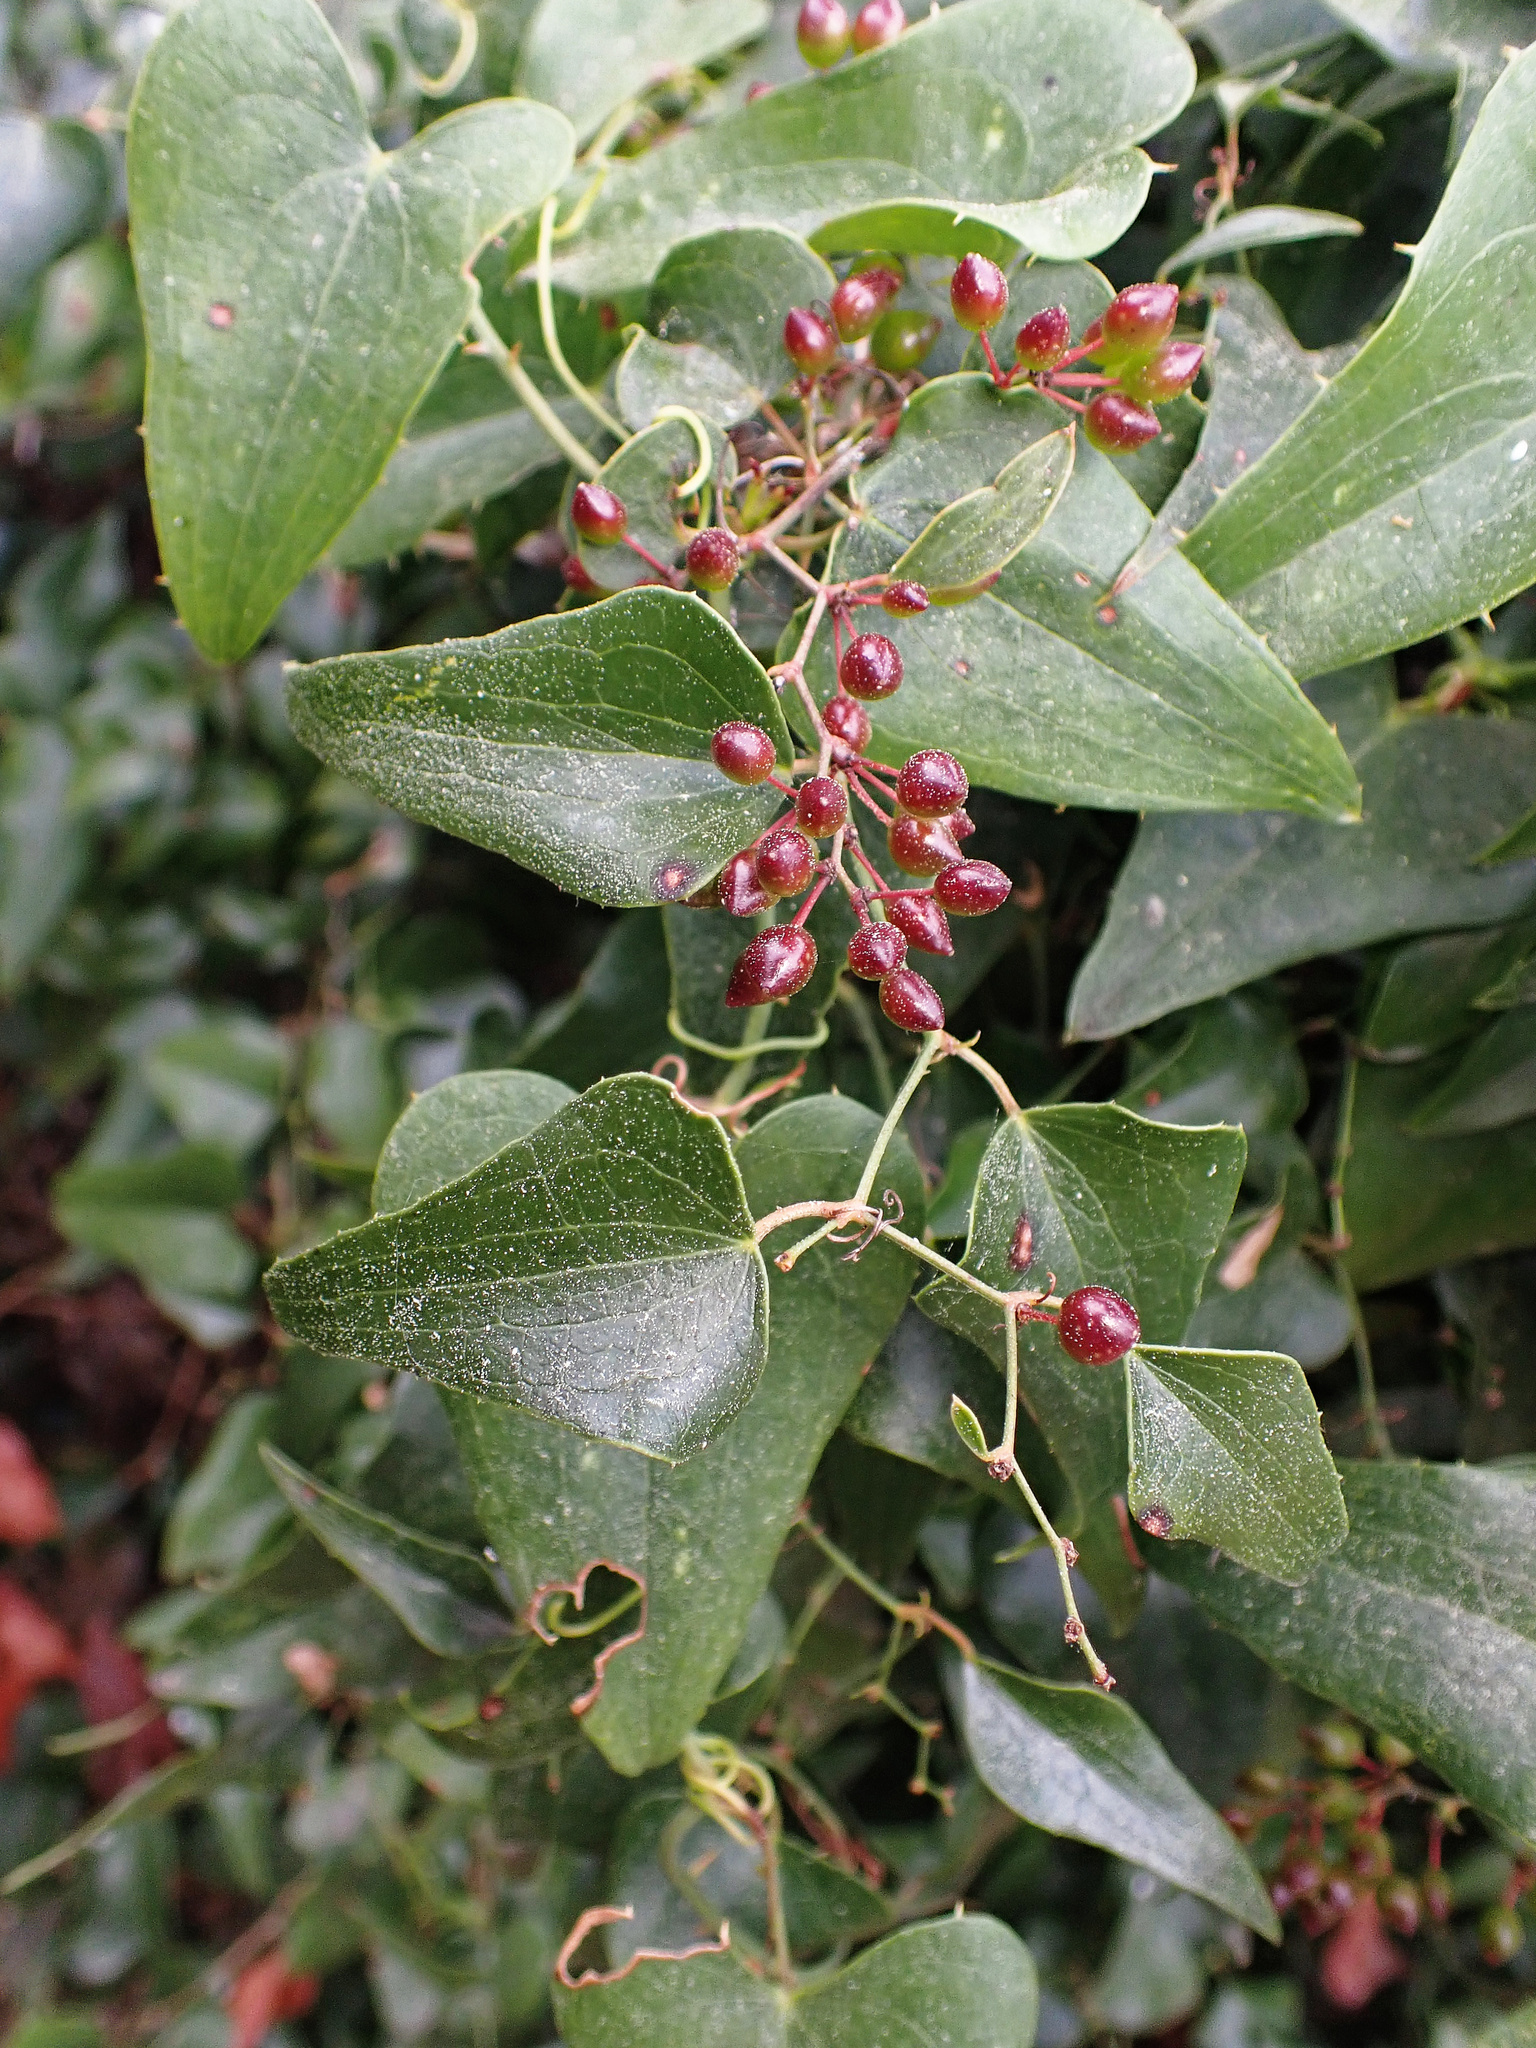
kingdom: Plantae
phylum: Tracheophyta
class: Liliopsida
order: Liliales
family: Smilacaceae
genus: Smilax
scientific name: Smilax aspera
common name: Common smilax
